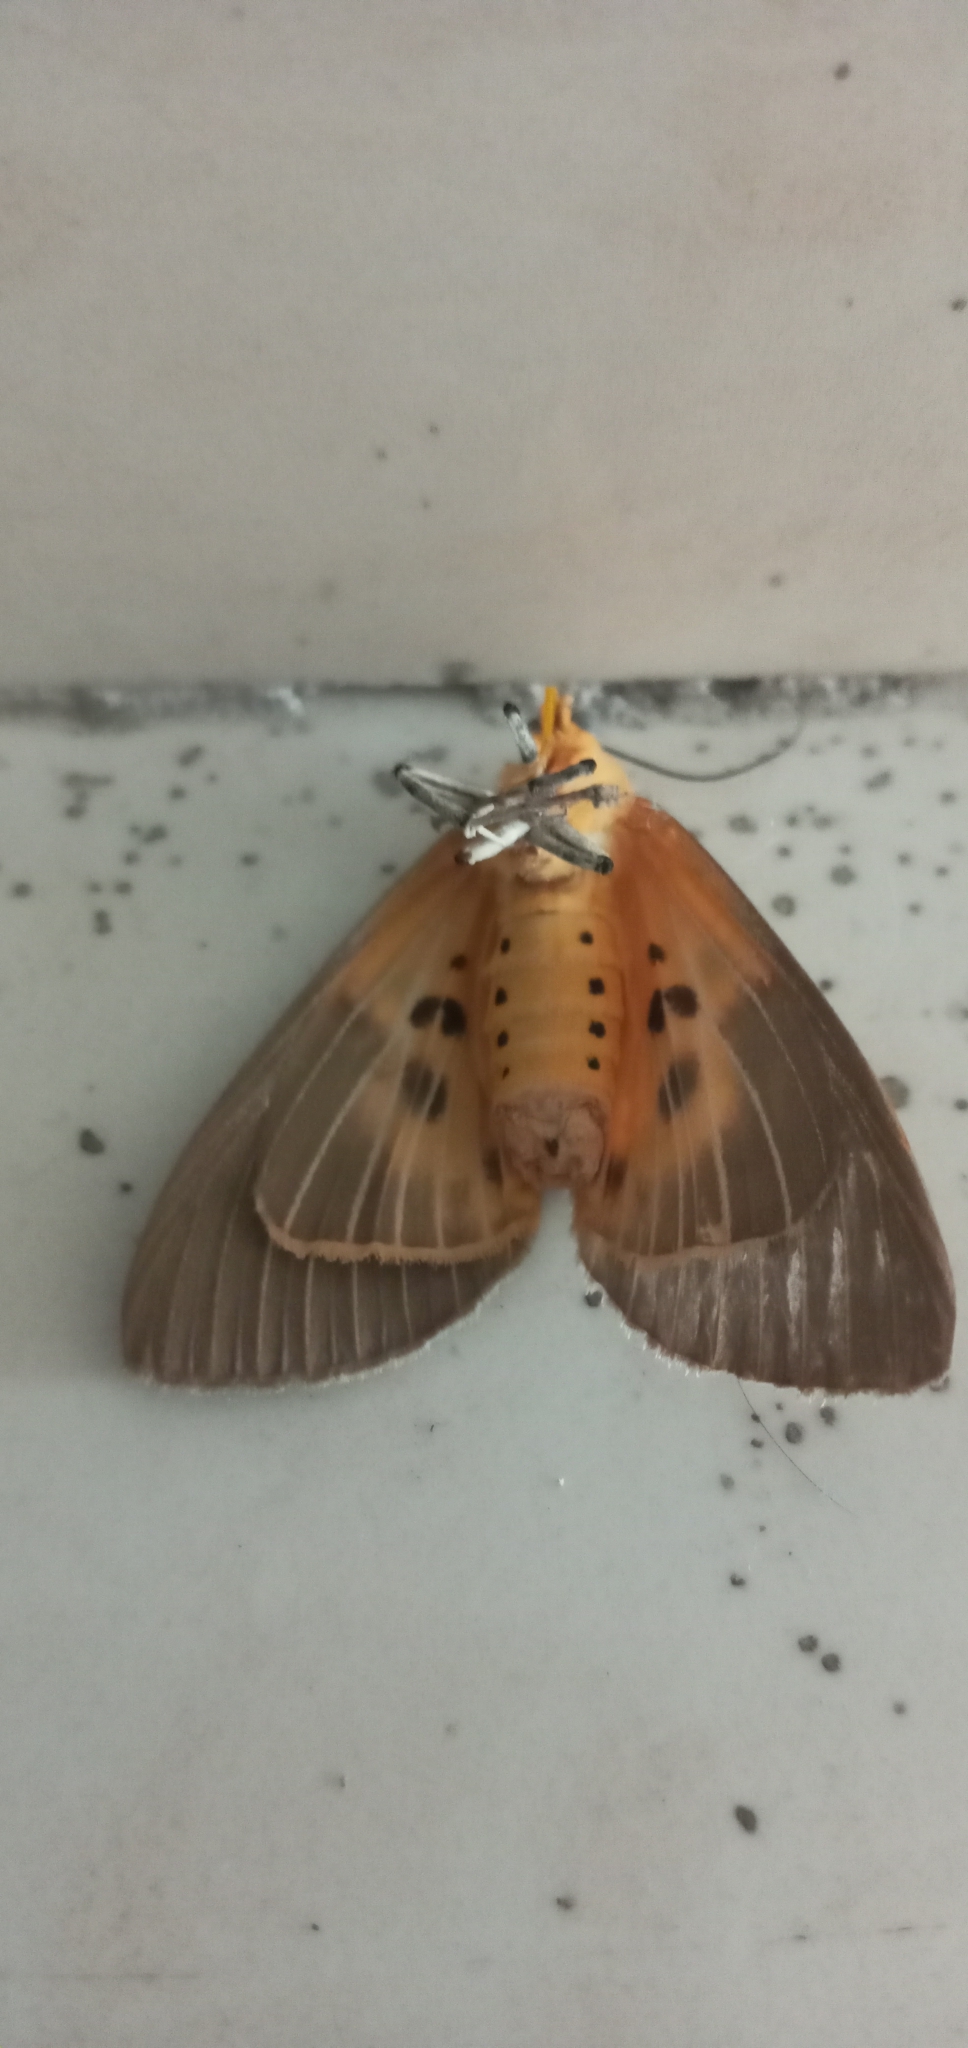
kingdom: Animalia
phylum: Arthropoda
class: Insecta
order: Lepidoptera
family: Erebidae
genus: Asota
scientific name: Asota caricae
